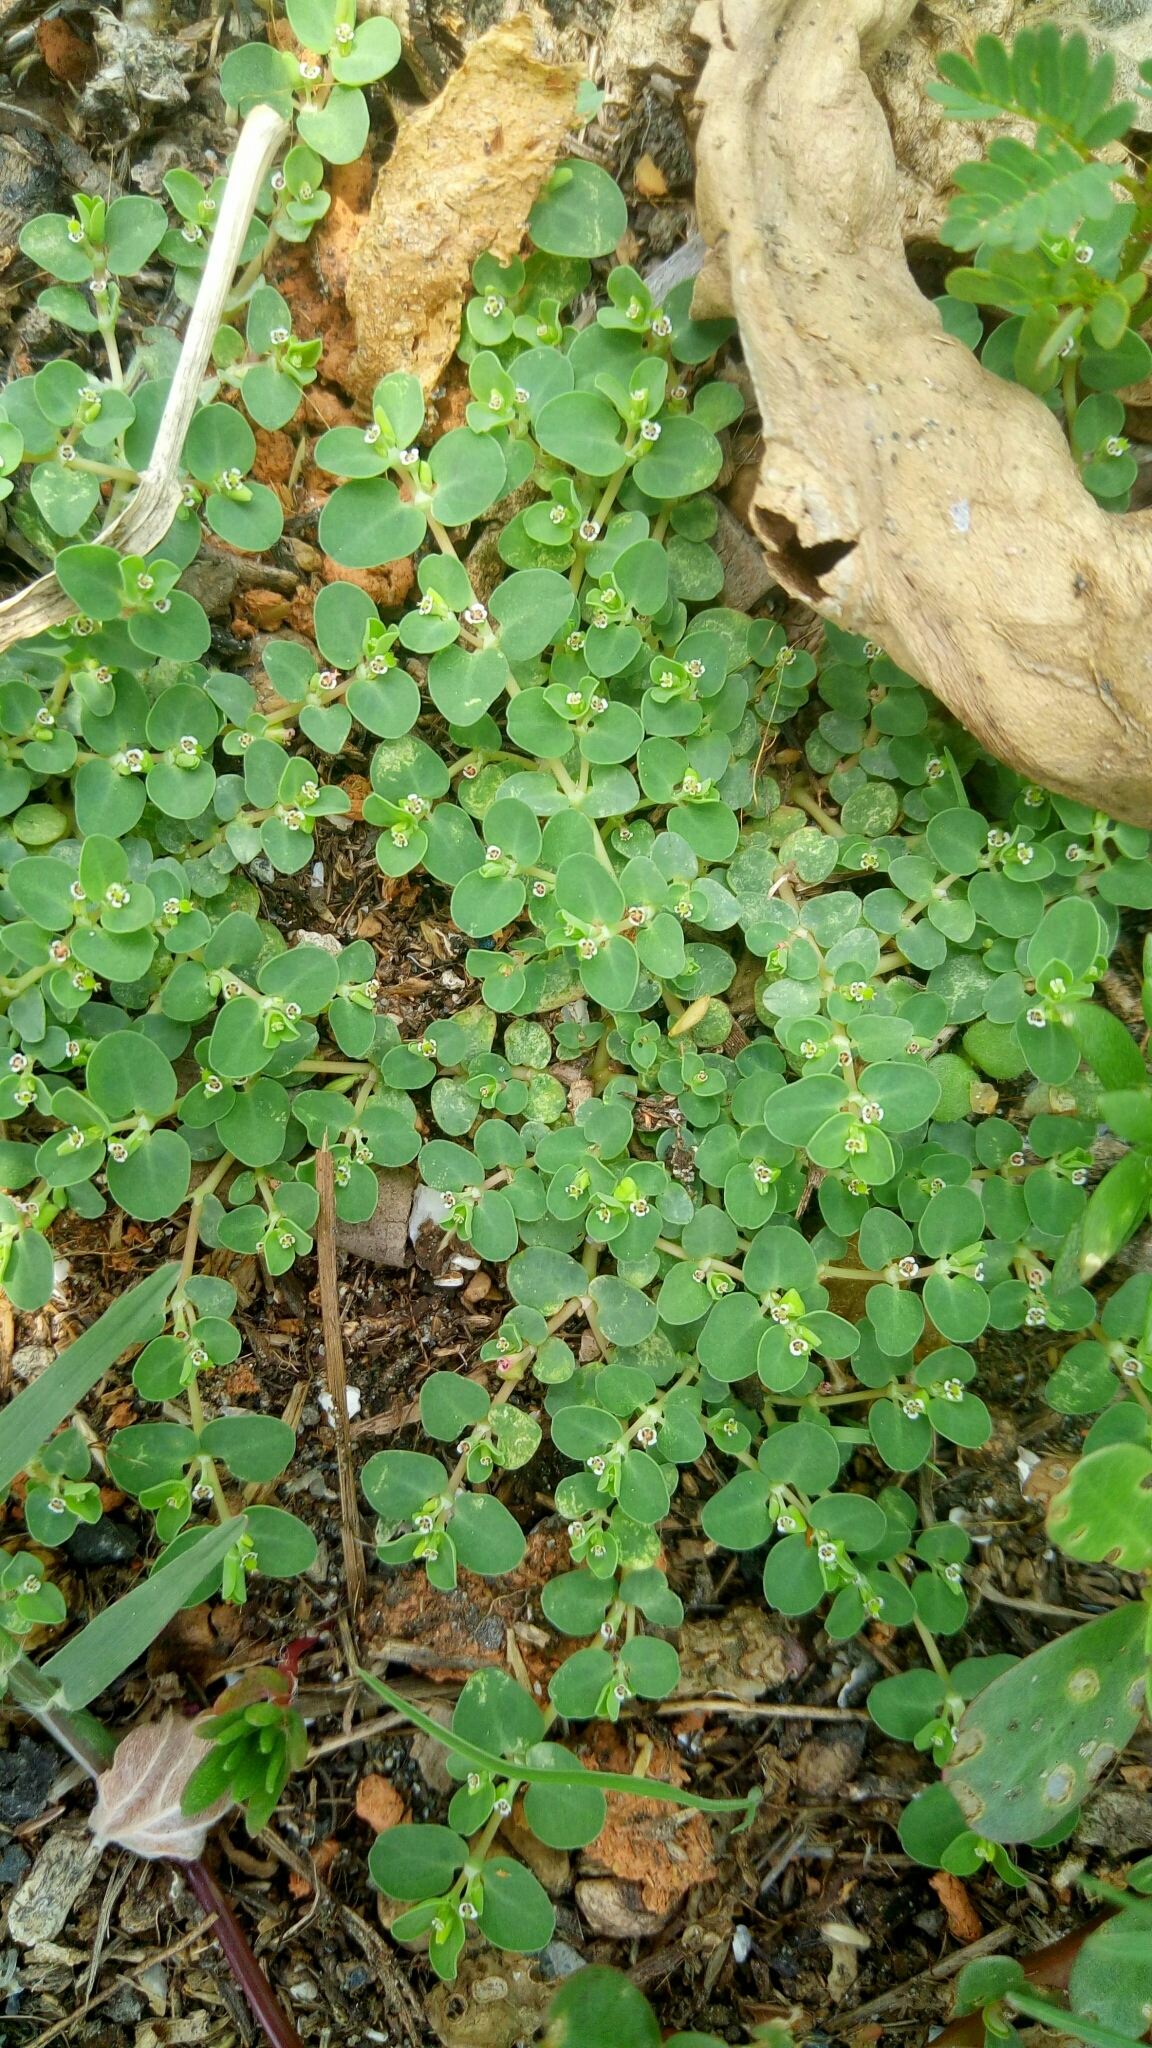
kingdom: Plantae
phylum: Tracheophyta
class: Magnoliopsida
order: Malpighiales
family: Euphorbiaceae
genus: Euphorbia
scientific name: Euphorbia serpens
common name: Matted sandmat
